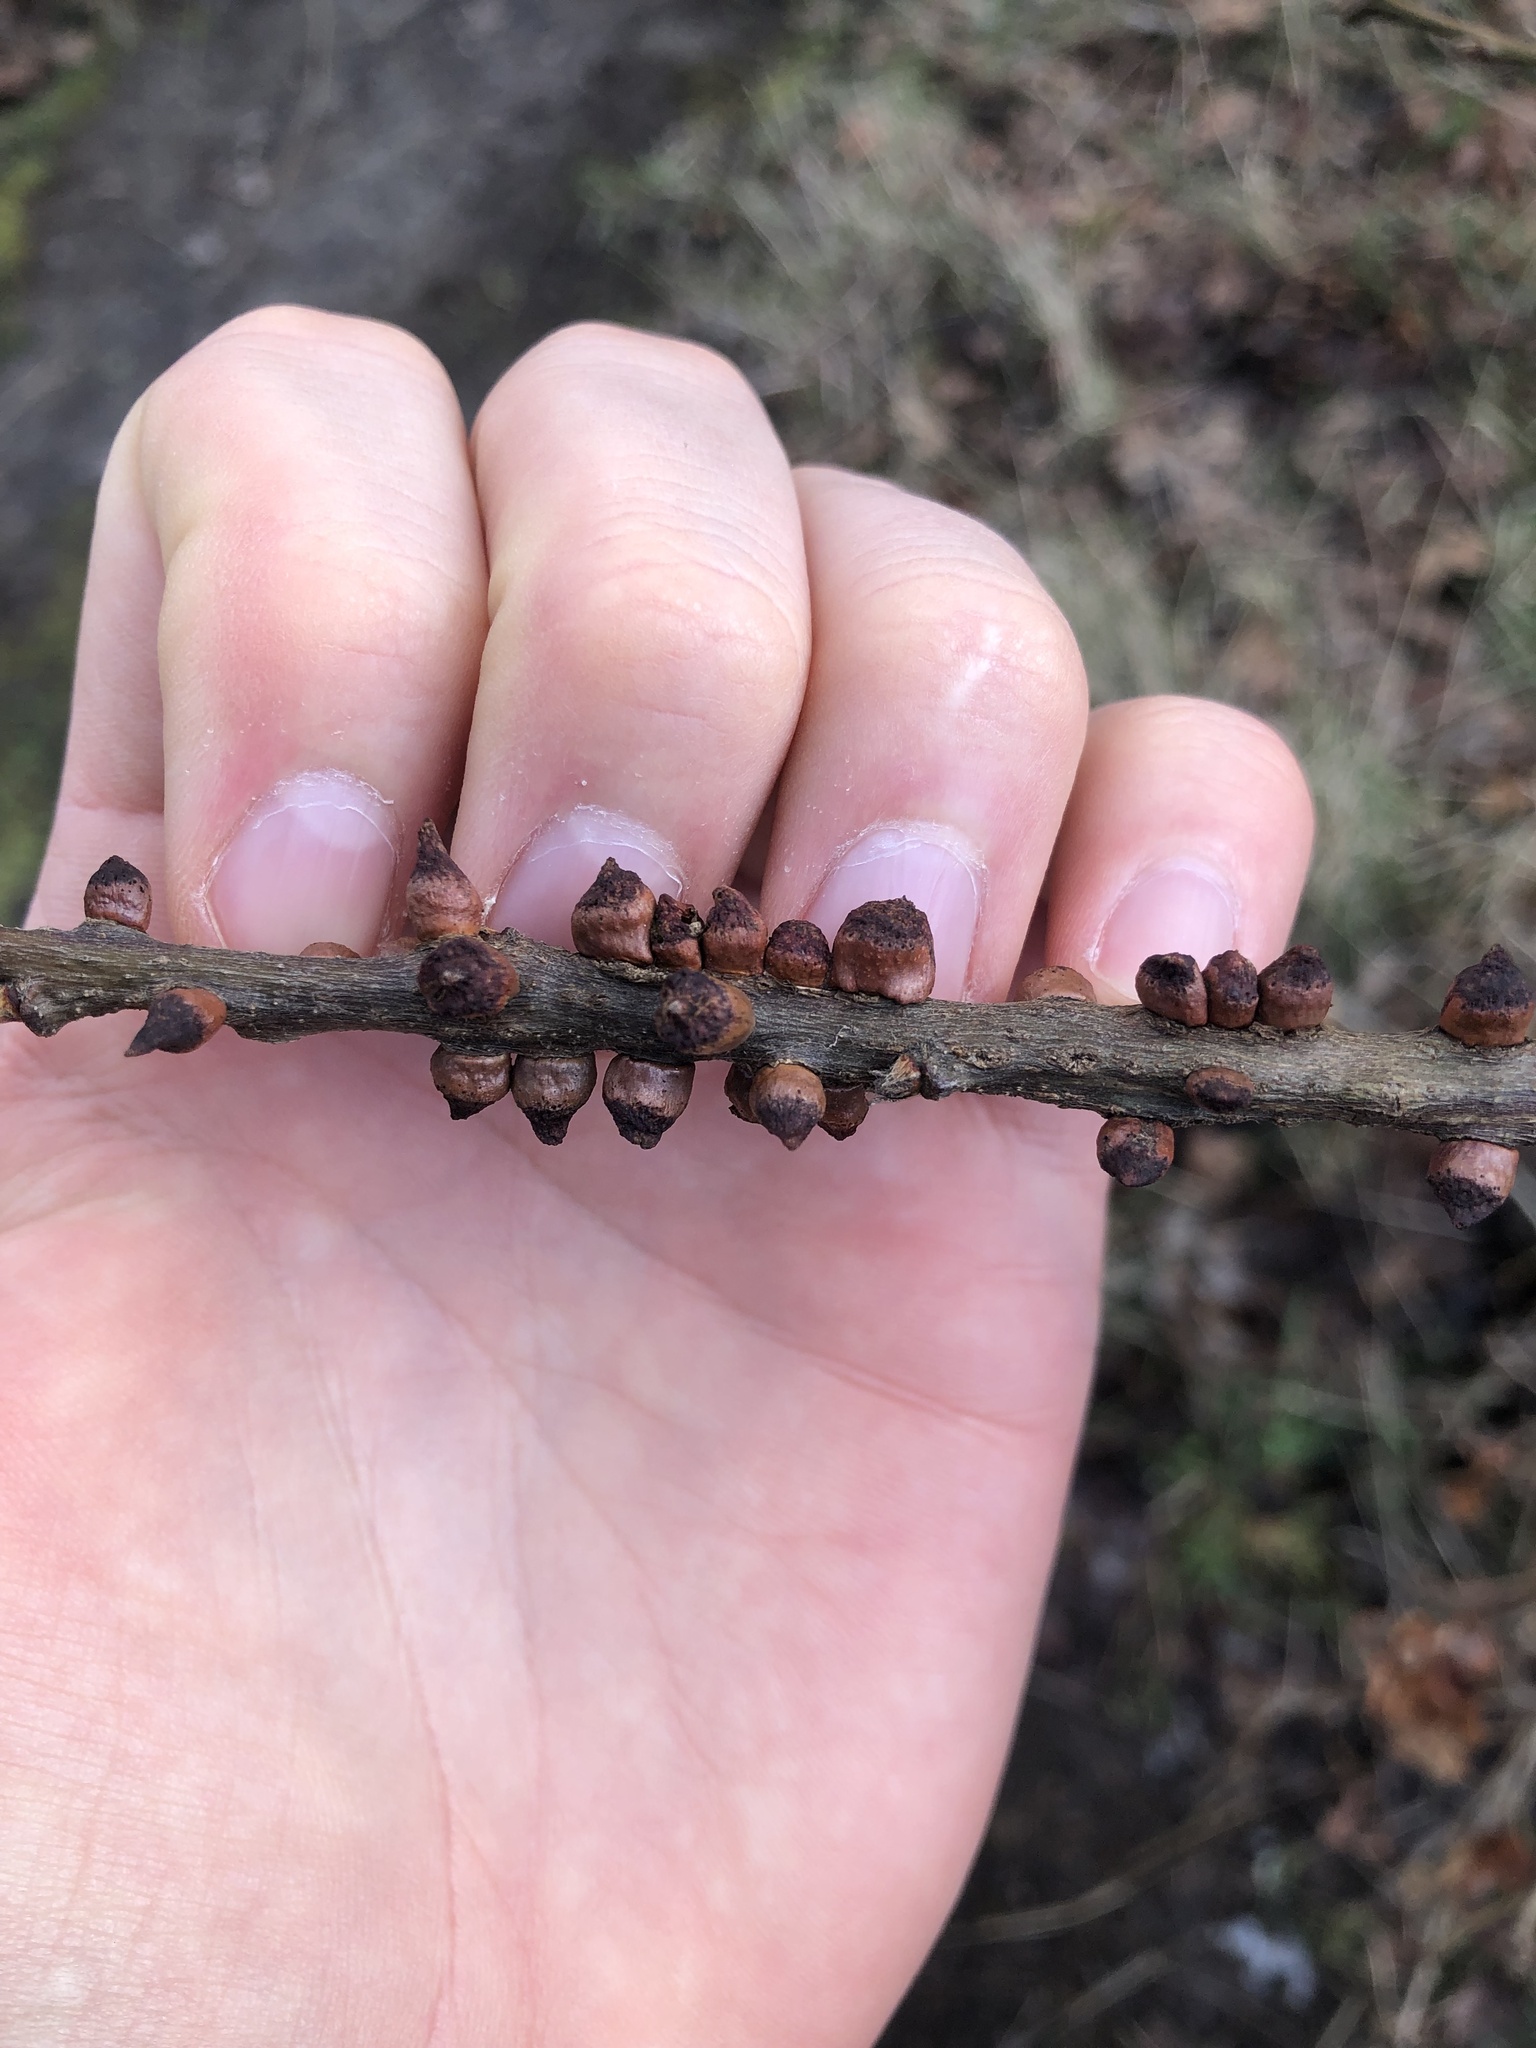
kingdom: Animalia
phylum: Arthropoda
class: Insecta
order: Hymenoptera
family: Cynipidae
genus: Disholcaspis
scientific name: Disholcaspis
